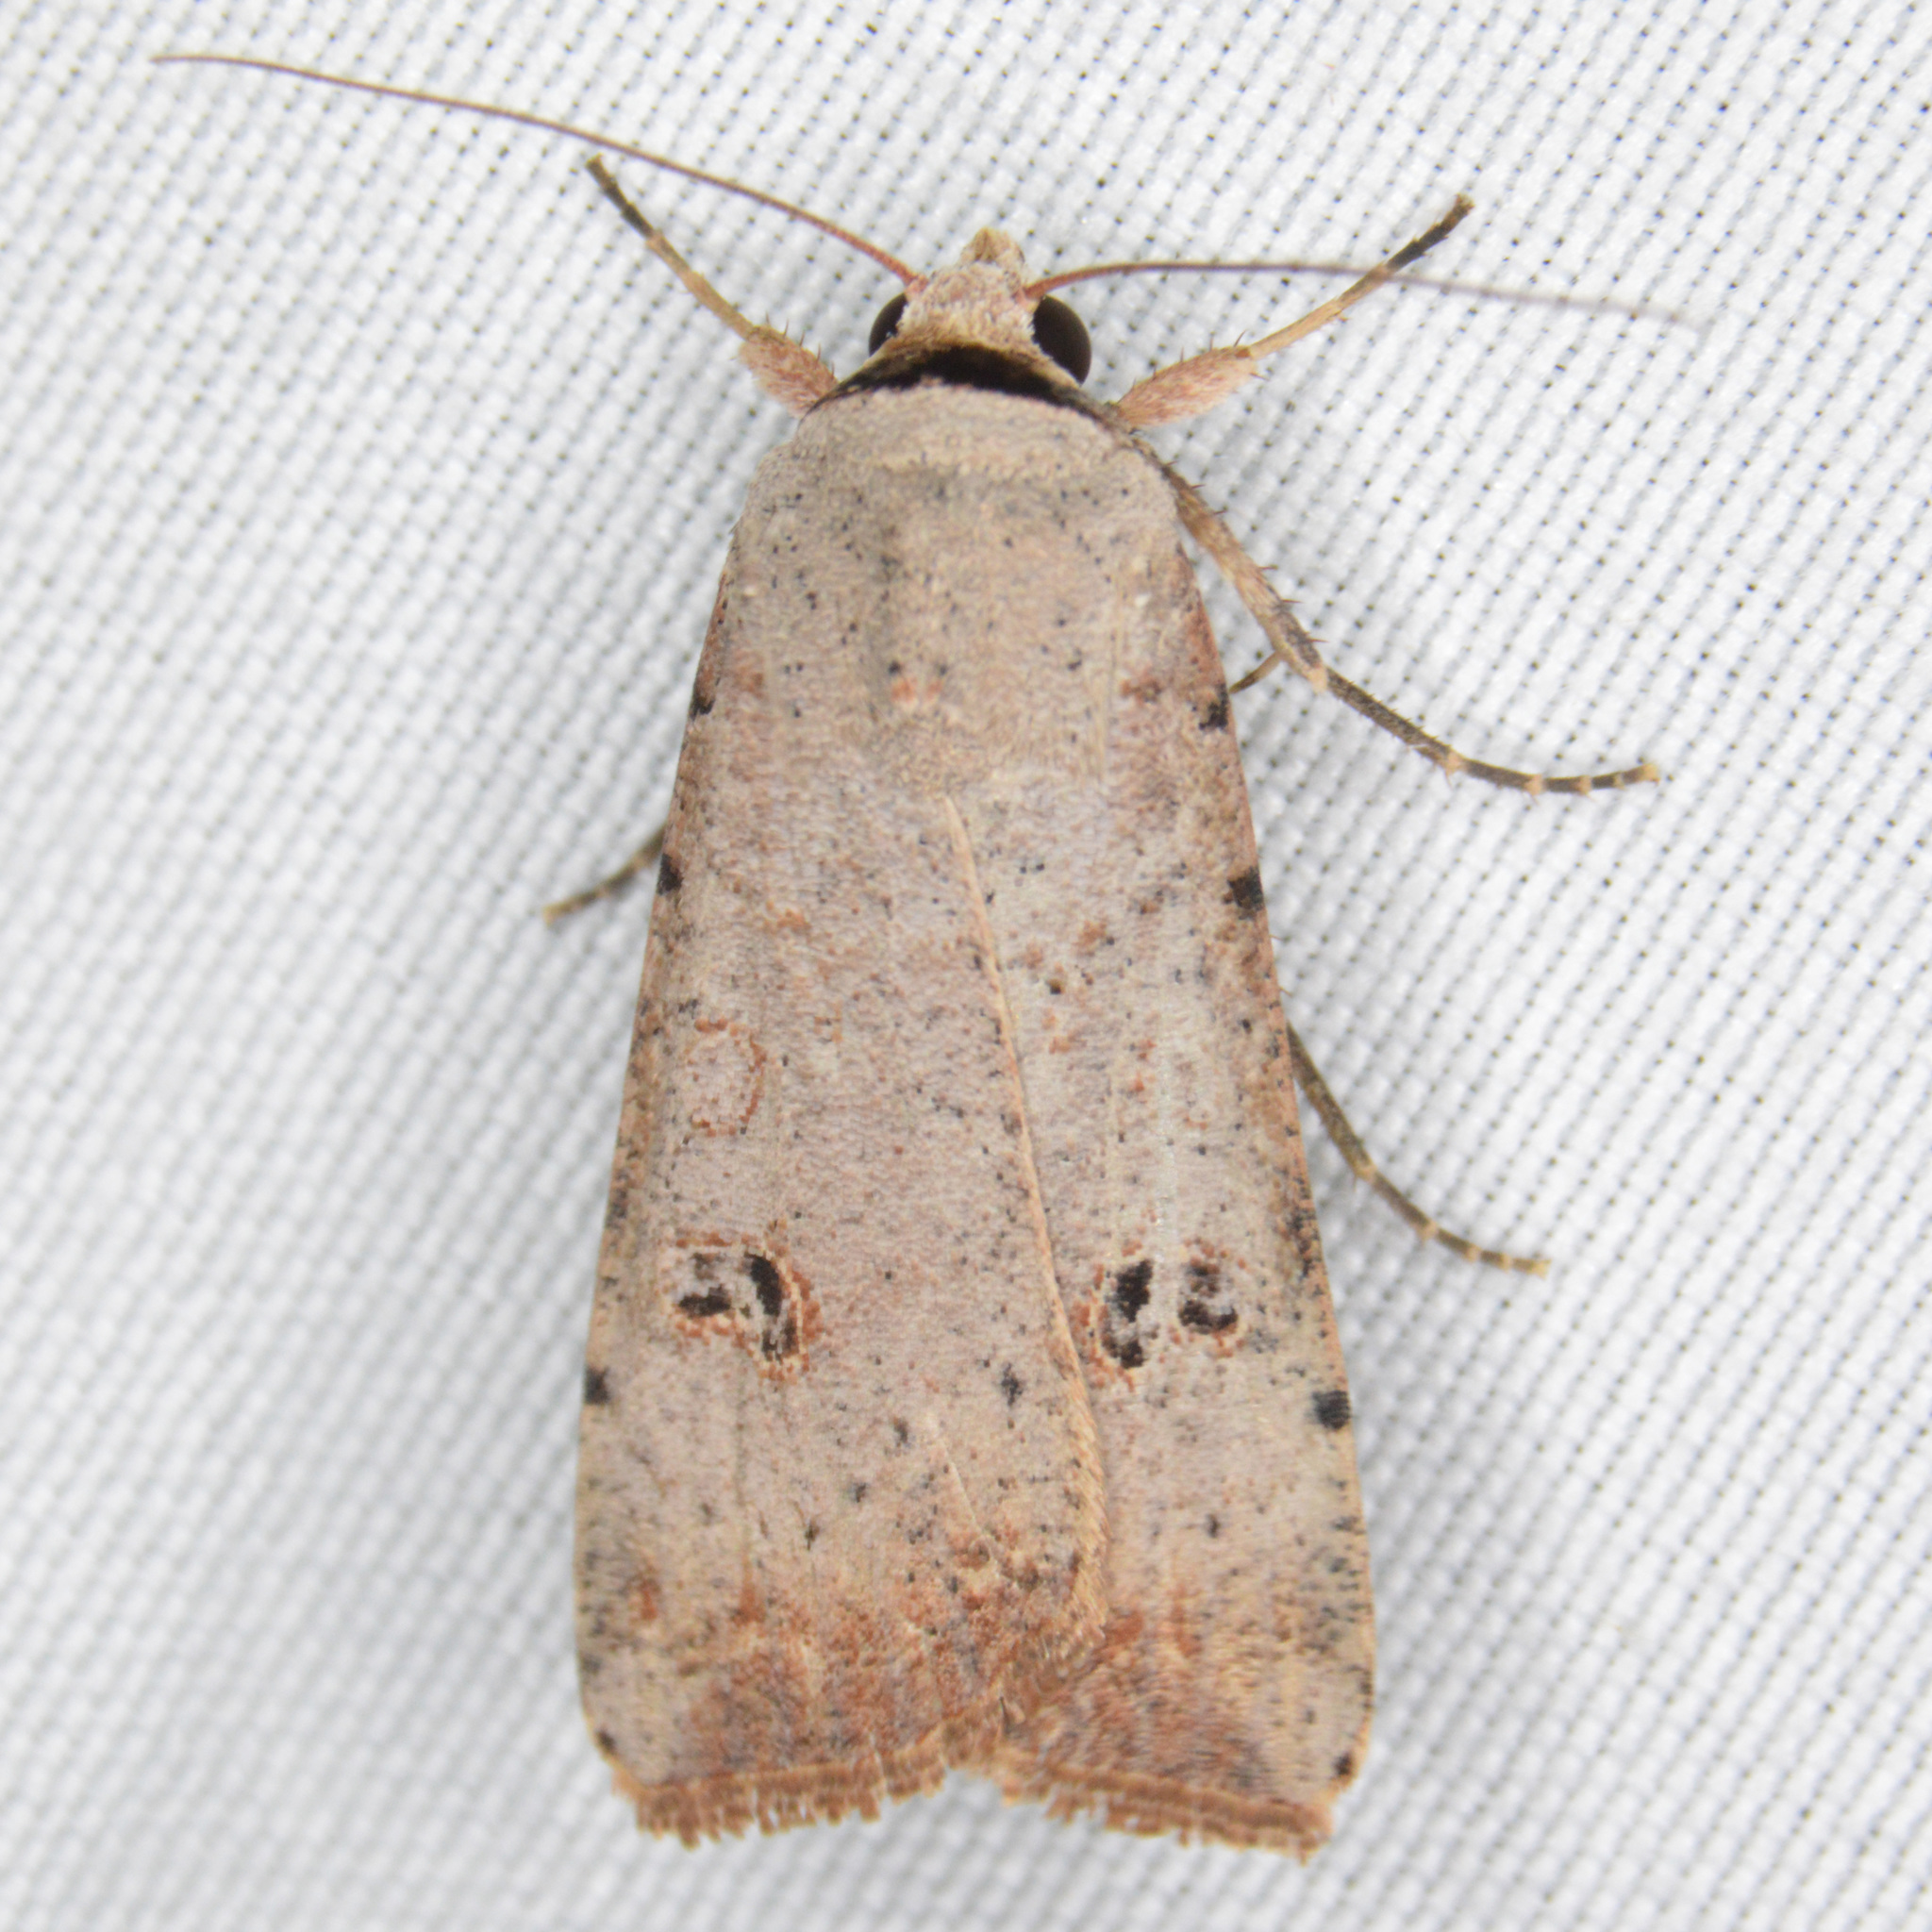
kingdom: Animalia
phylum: Arthropoda
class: Insecta
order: Lepidoptera
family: Noctuidae
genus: Anicla
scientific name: Anicla infecta
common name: Green cutworm
